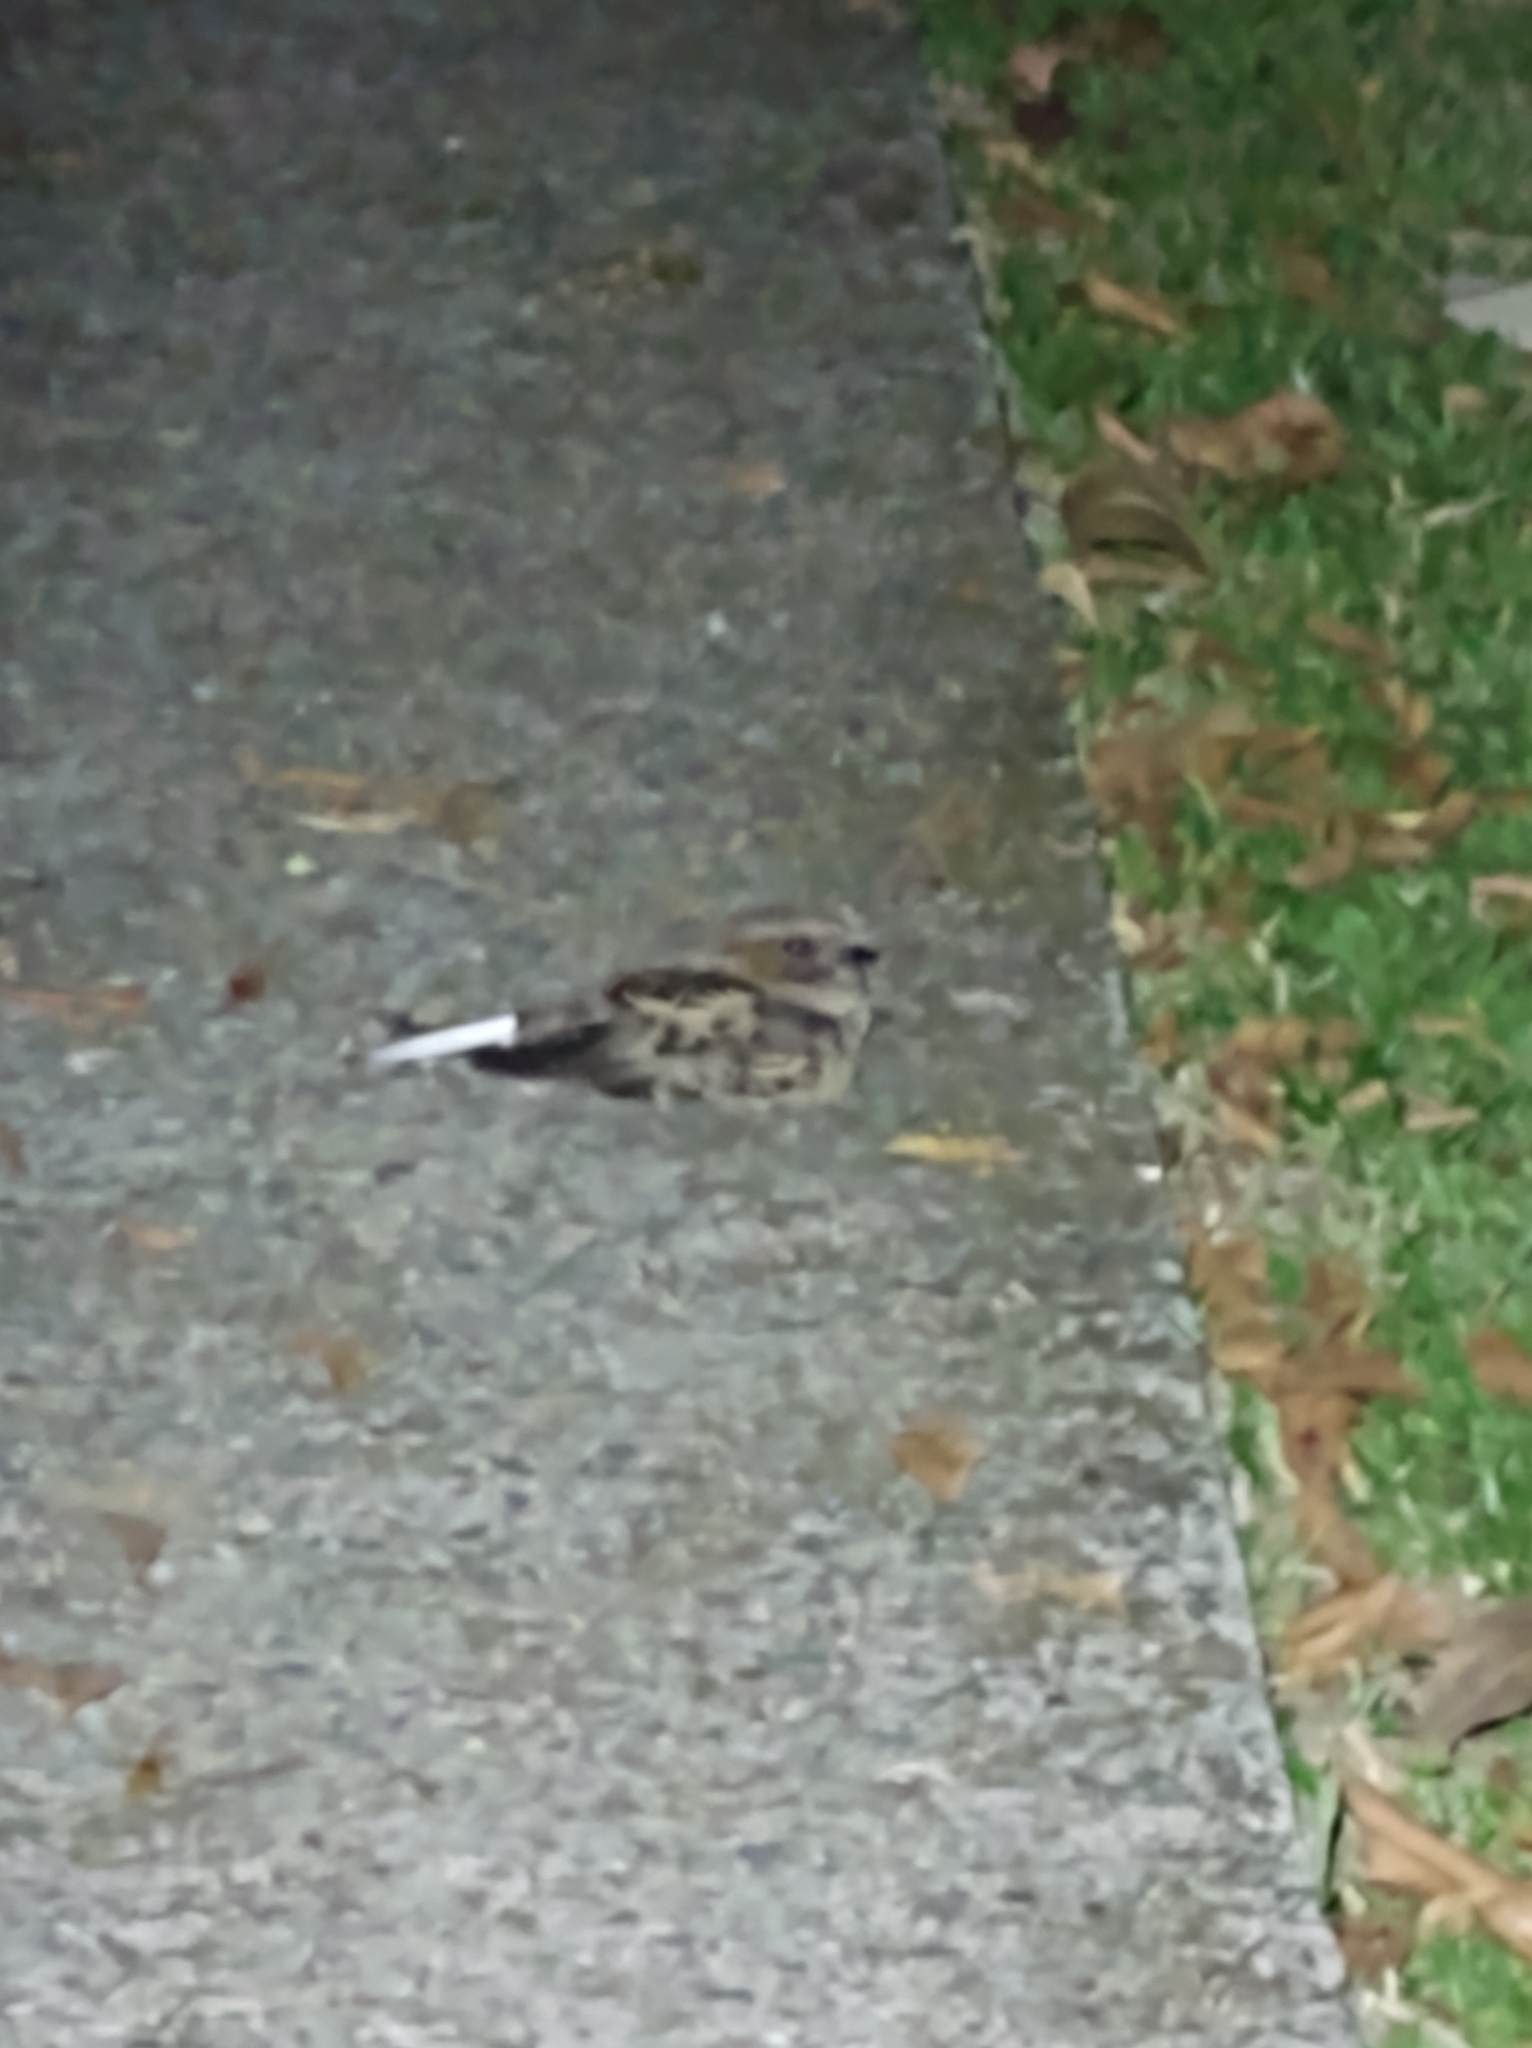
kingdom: Animalia
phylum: Chordata
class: Aves
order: Caprimulgiformes
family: Caprimulgidae
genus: Nyctidromus
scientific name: Nyctidromus albicollis
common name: Pauraque
